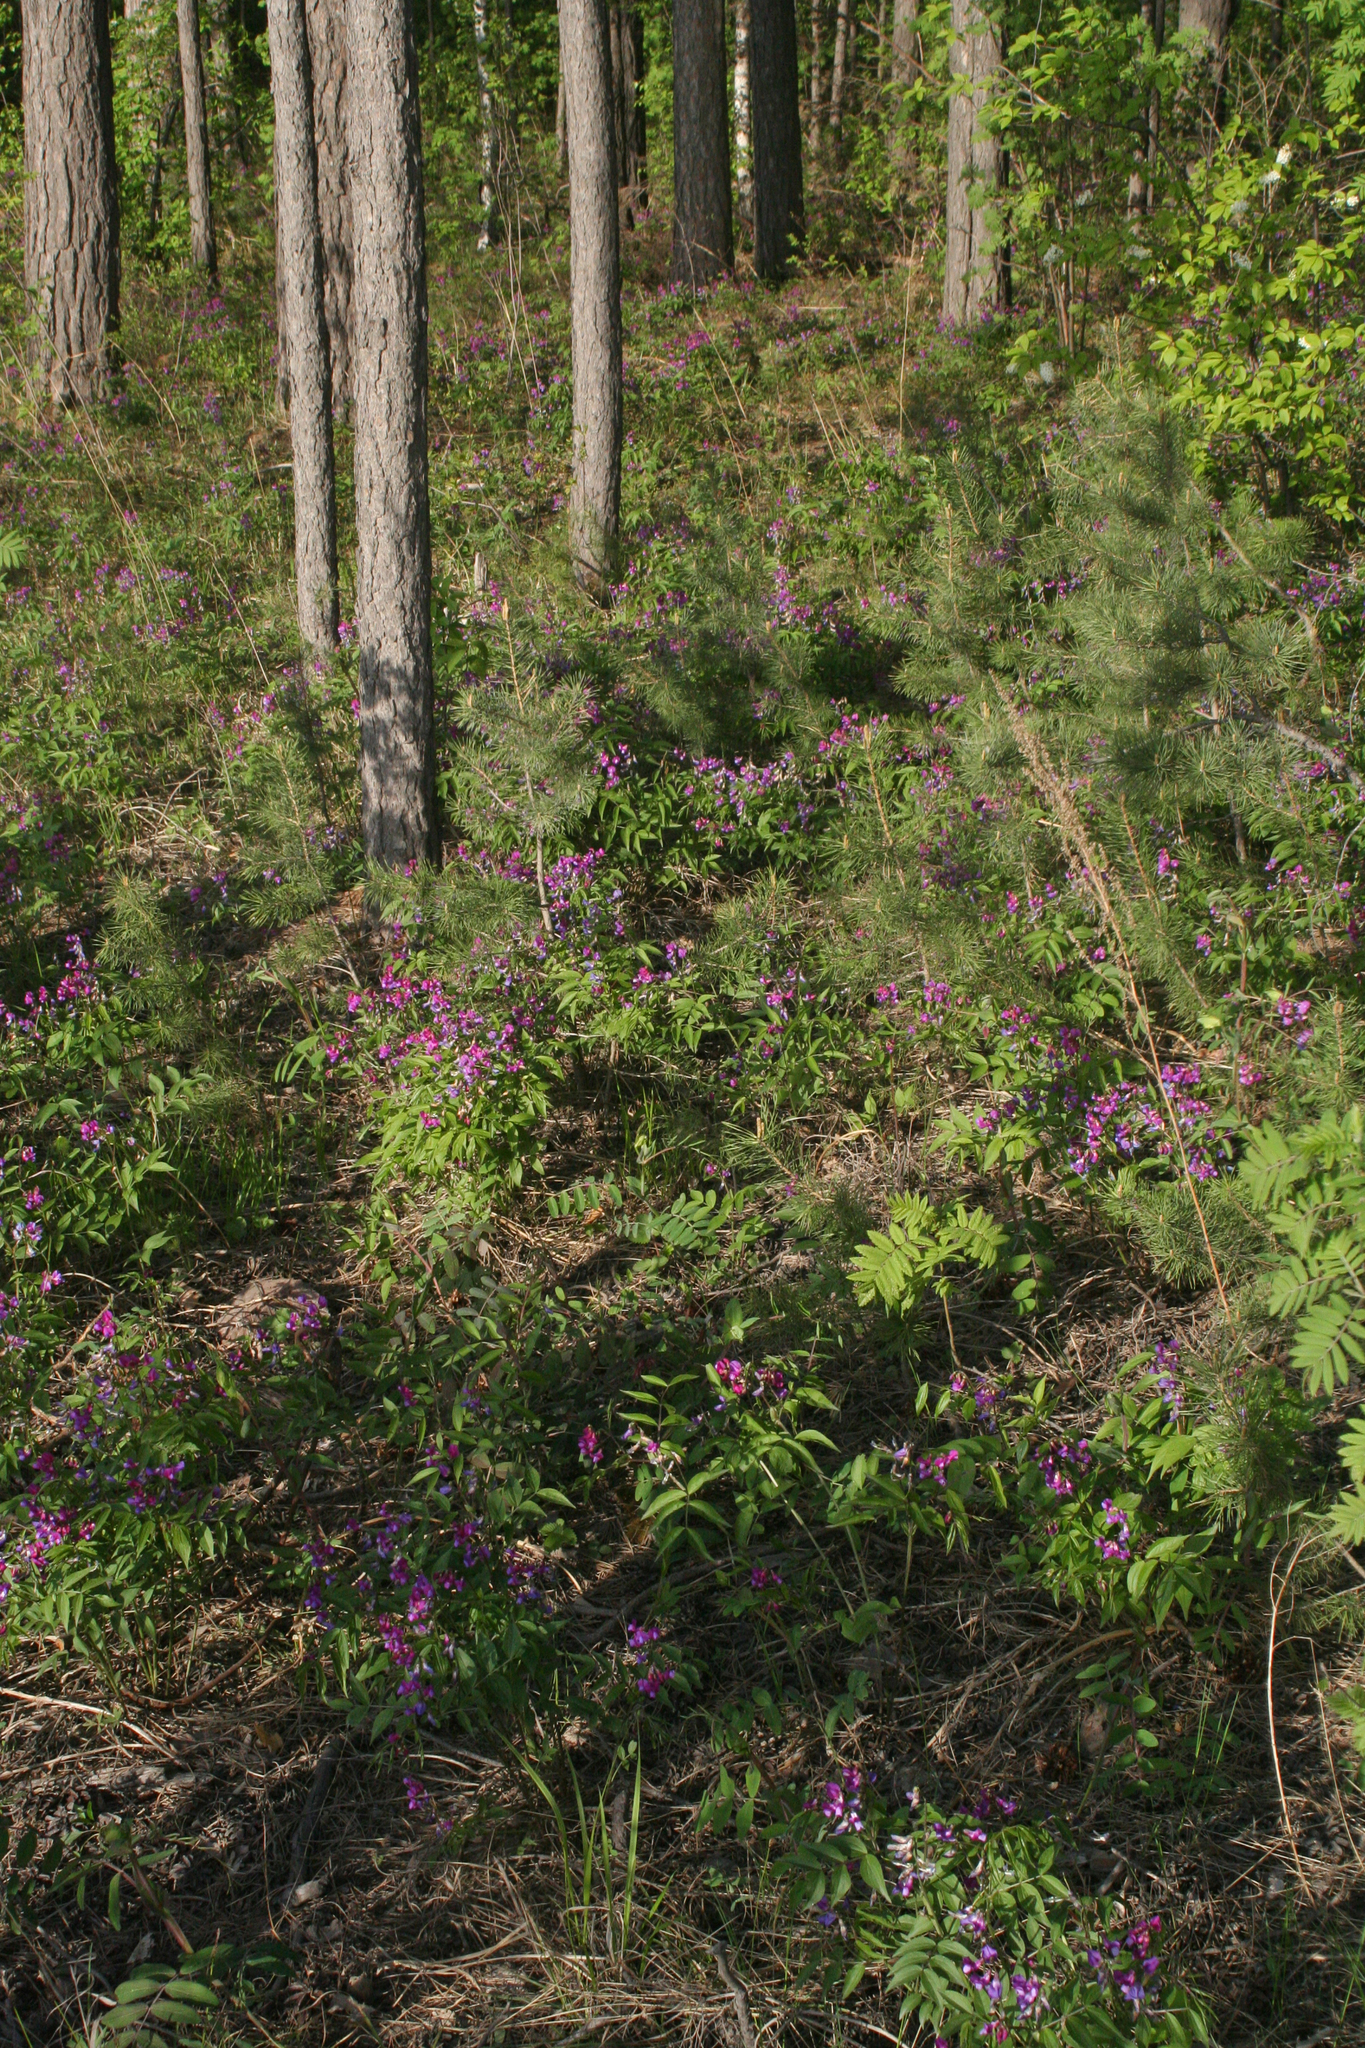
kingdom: Plantae
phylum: Tracheophyta
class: Magnoliopsida
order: Fabales
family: Fabaceae
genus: Lathyrus
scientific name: Lathyrus vernus
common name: Spring pea
